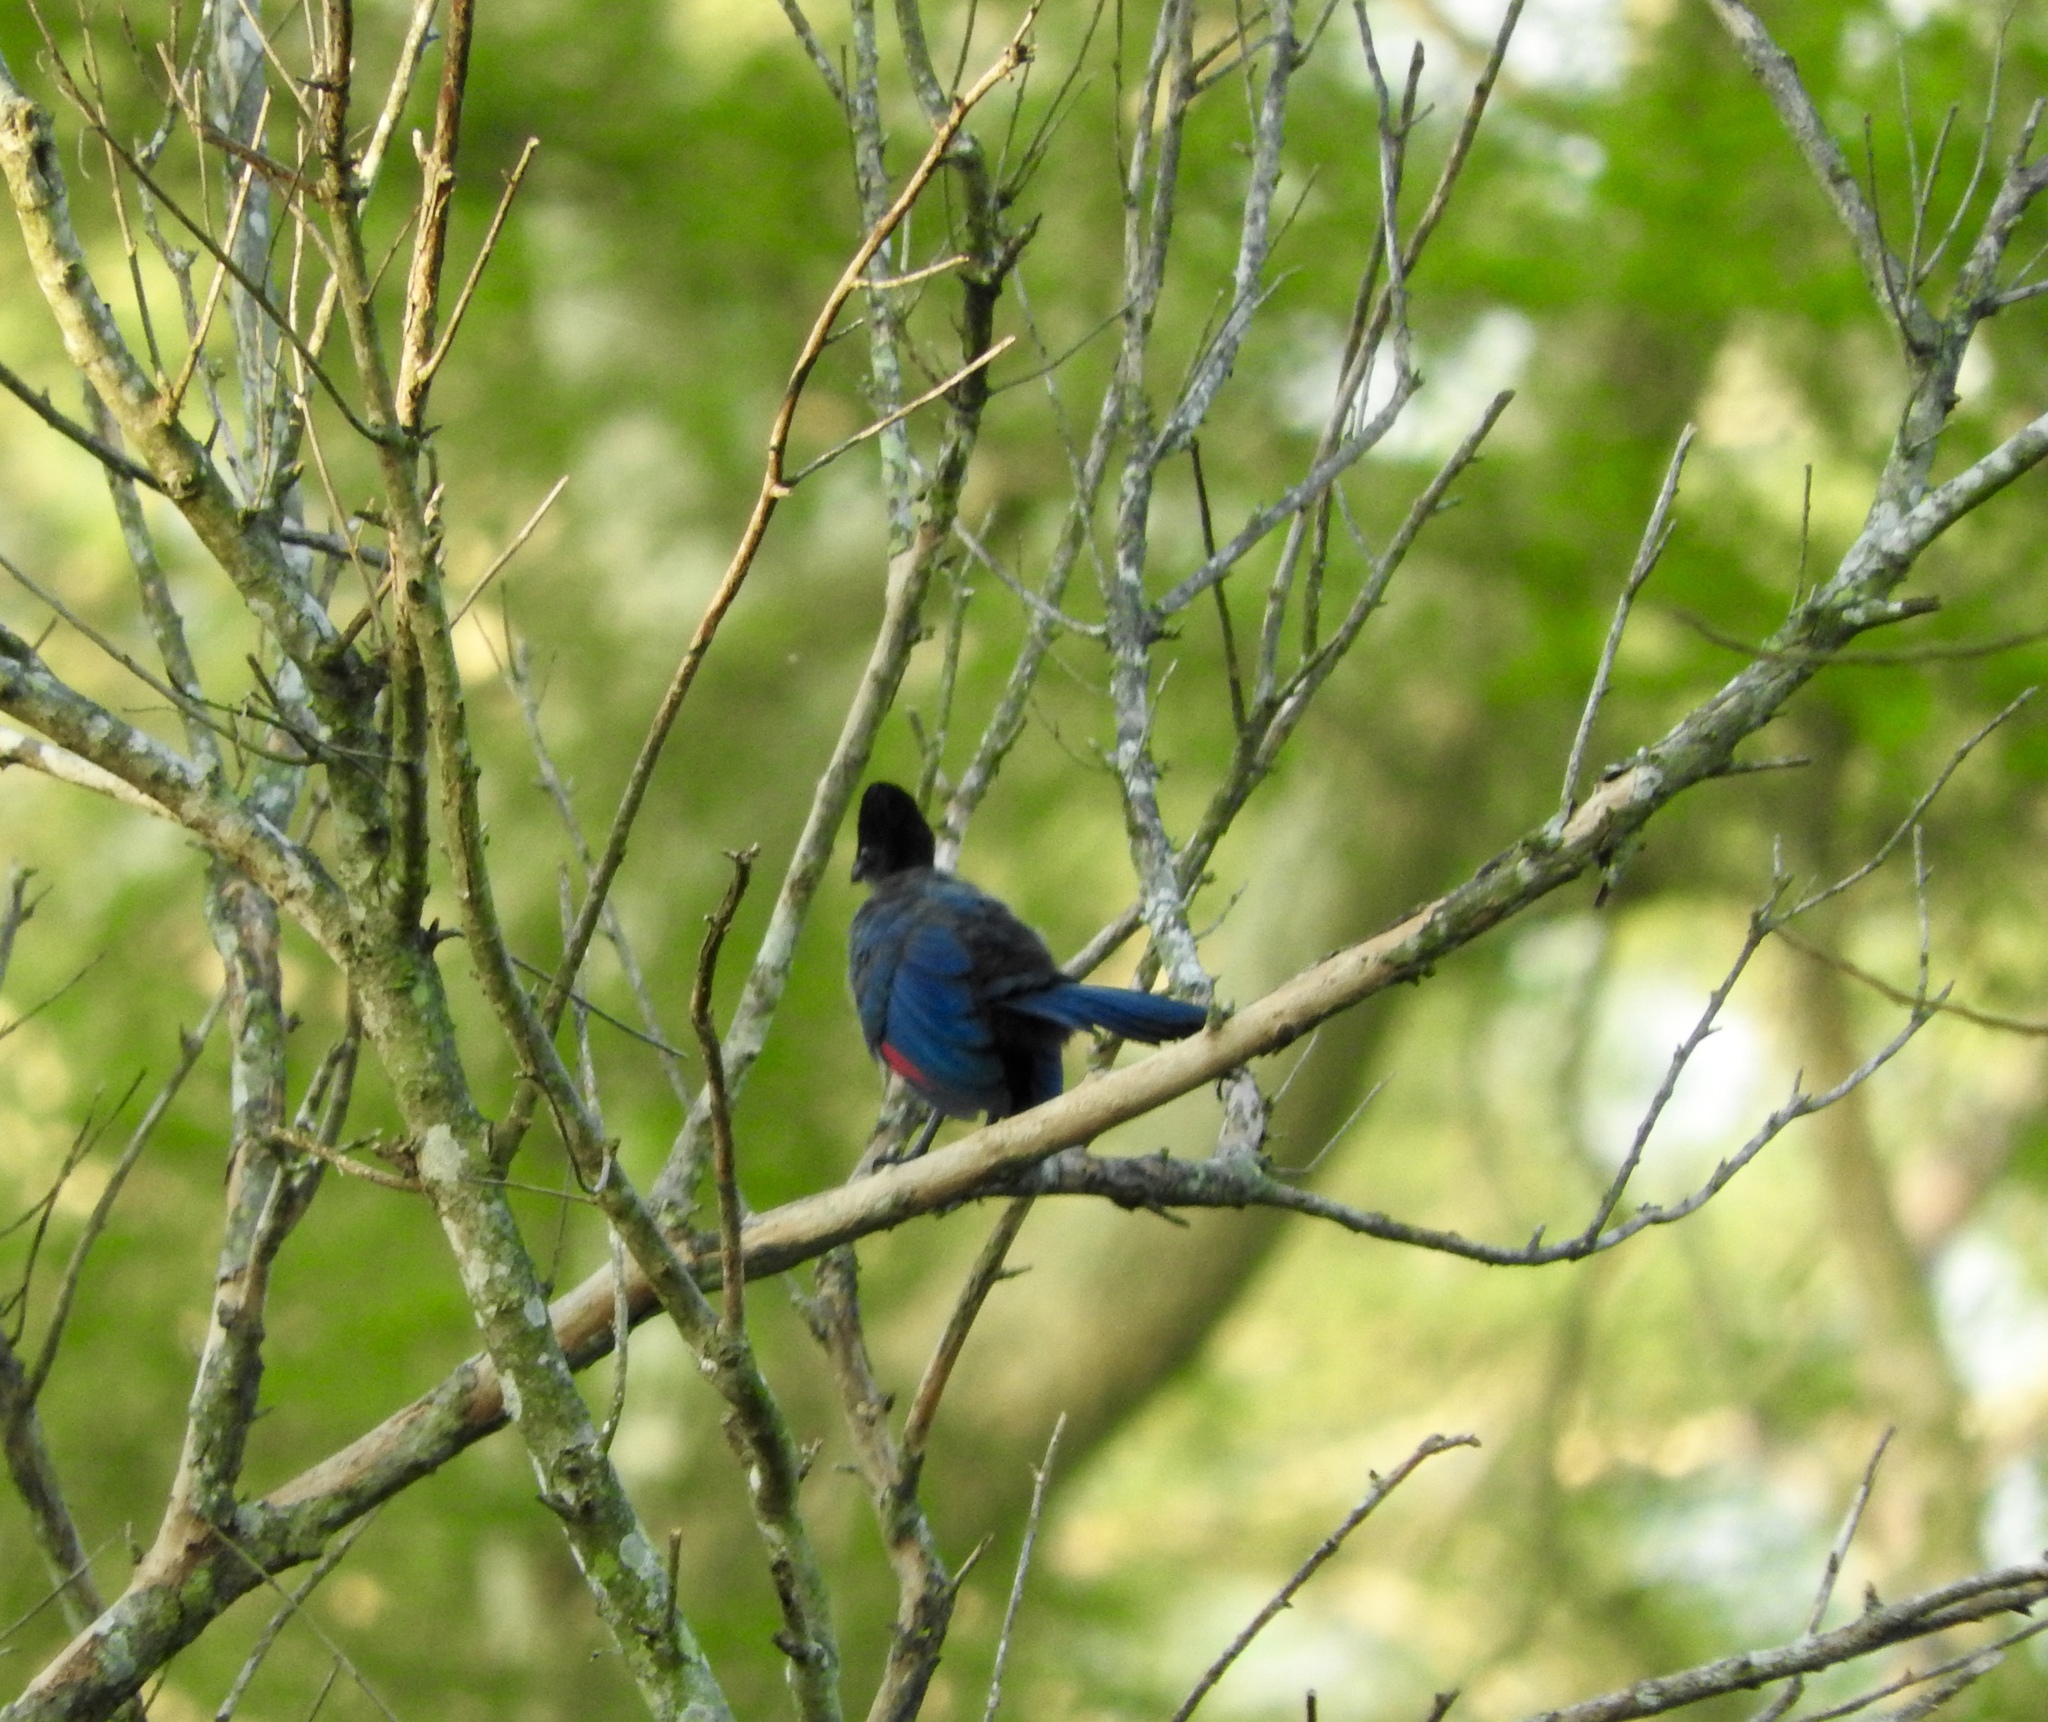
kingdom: Animalia
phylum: Chordata
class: Aves
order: Musophagiformes
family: Musophagidae
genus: Tauraco
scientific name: Tauraco porphyreolophus
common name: Purple-crested turaco
